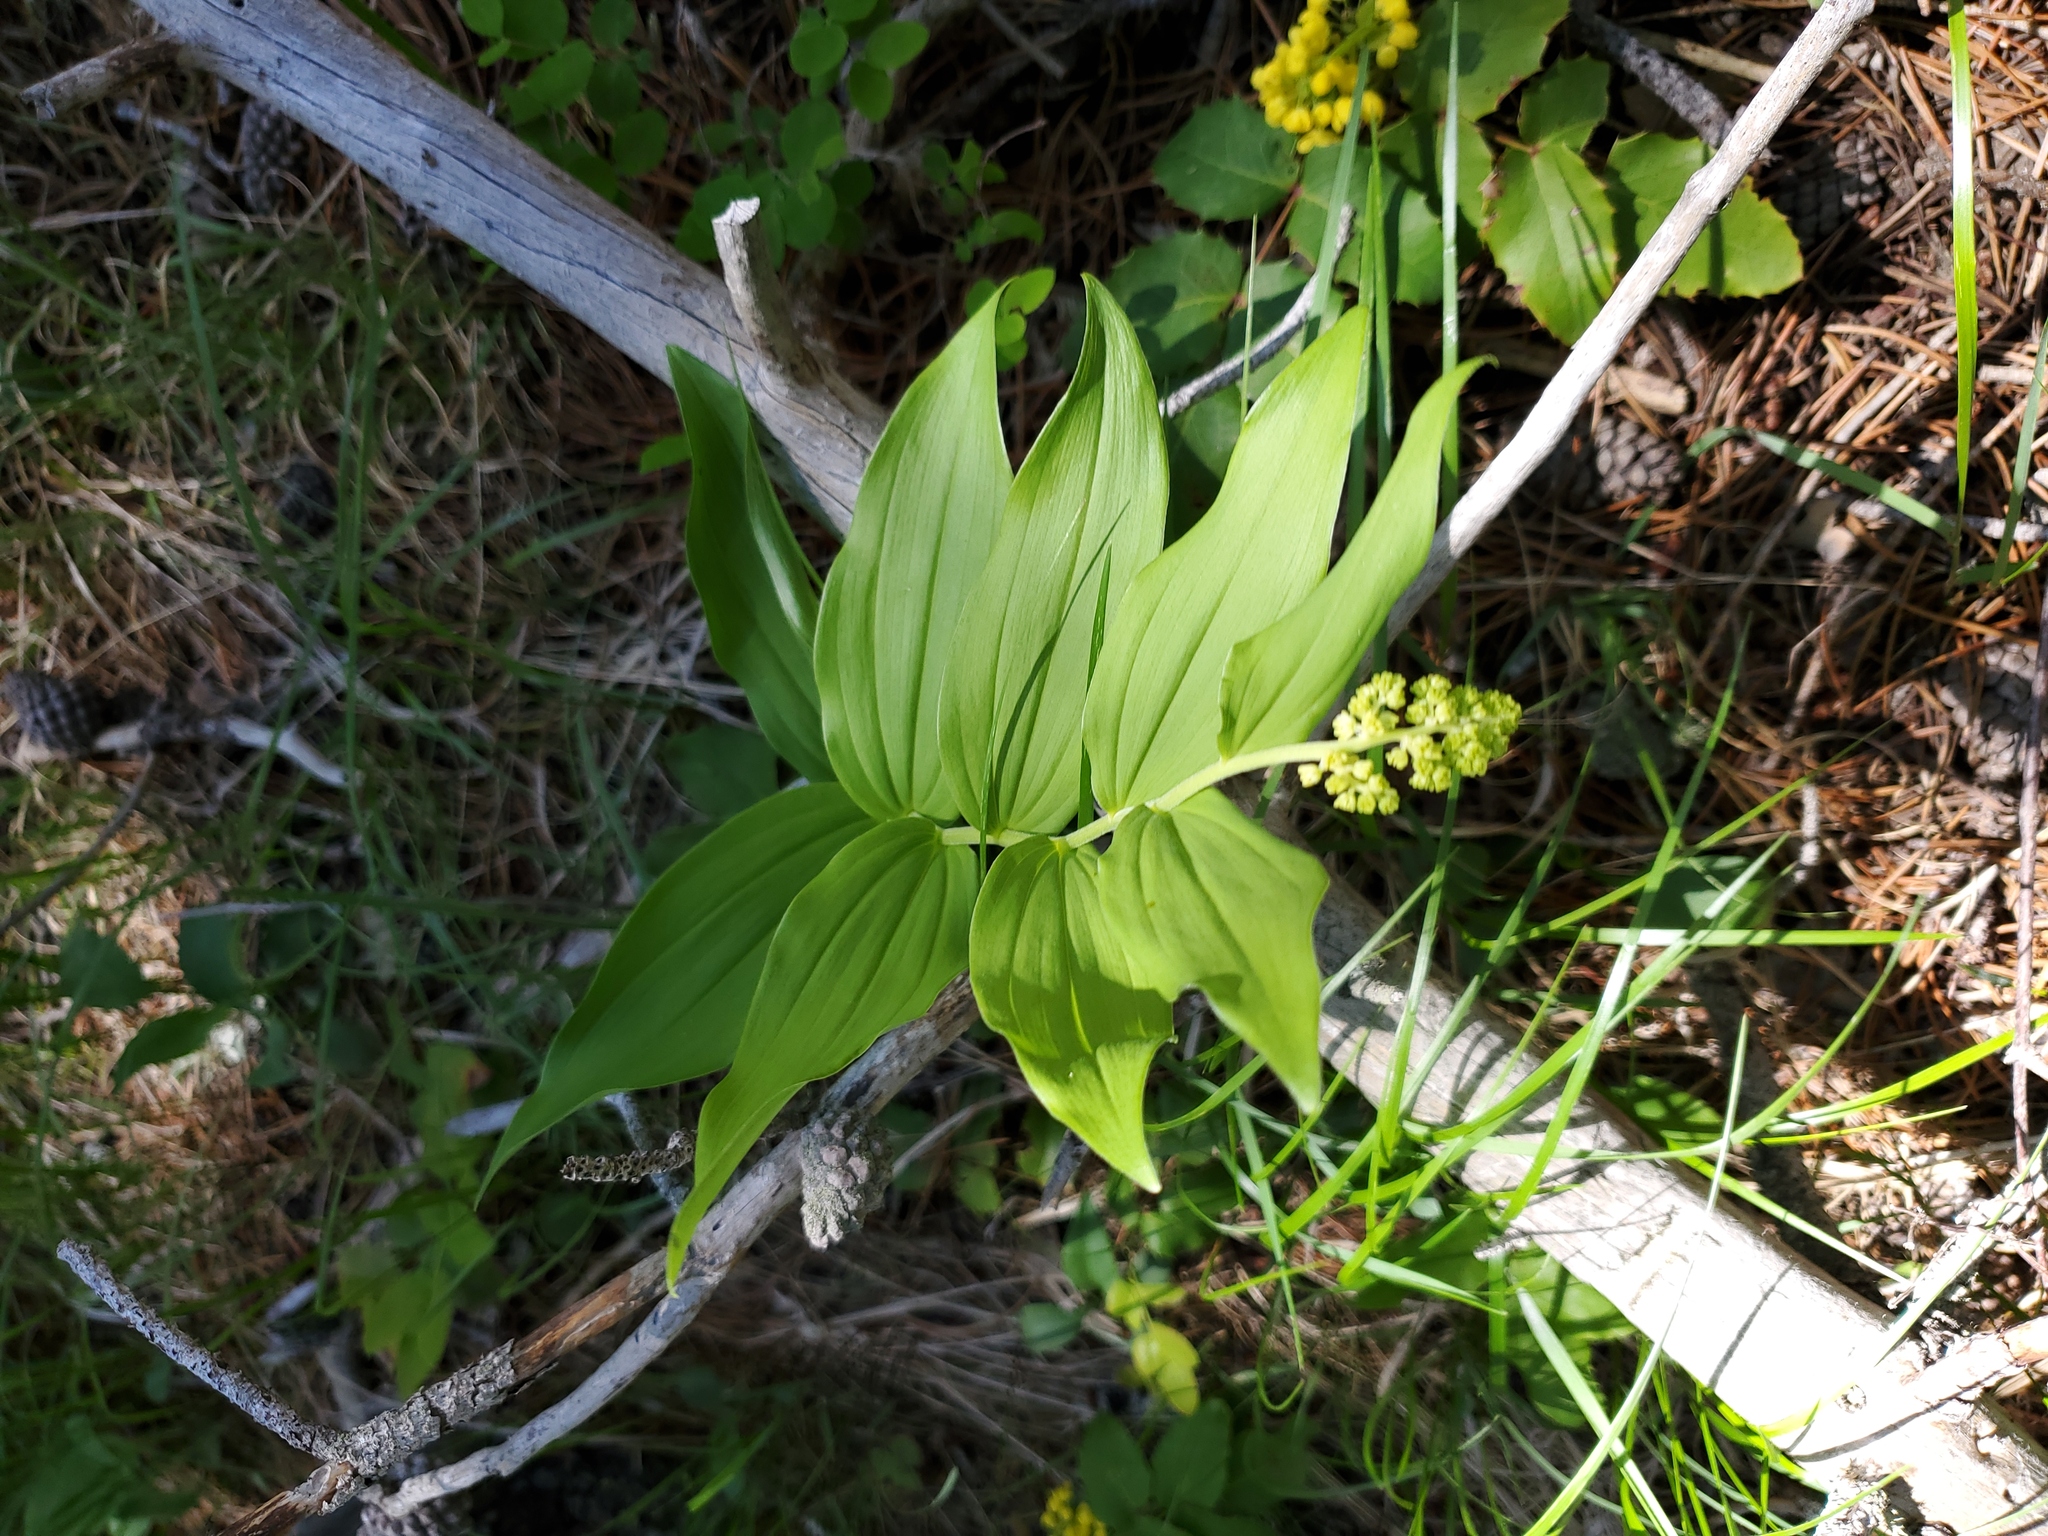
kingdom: Plantae
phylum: Tracheophyta
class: Liliopsida
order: Asparagales
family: Asparagaceae
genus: Maianthemum
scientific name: Maianthemum racemosum
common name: False spikenard
